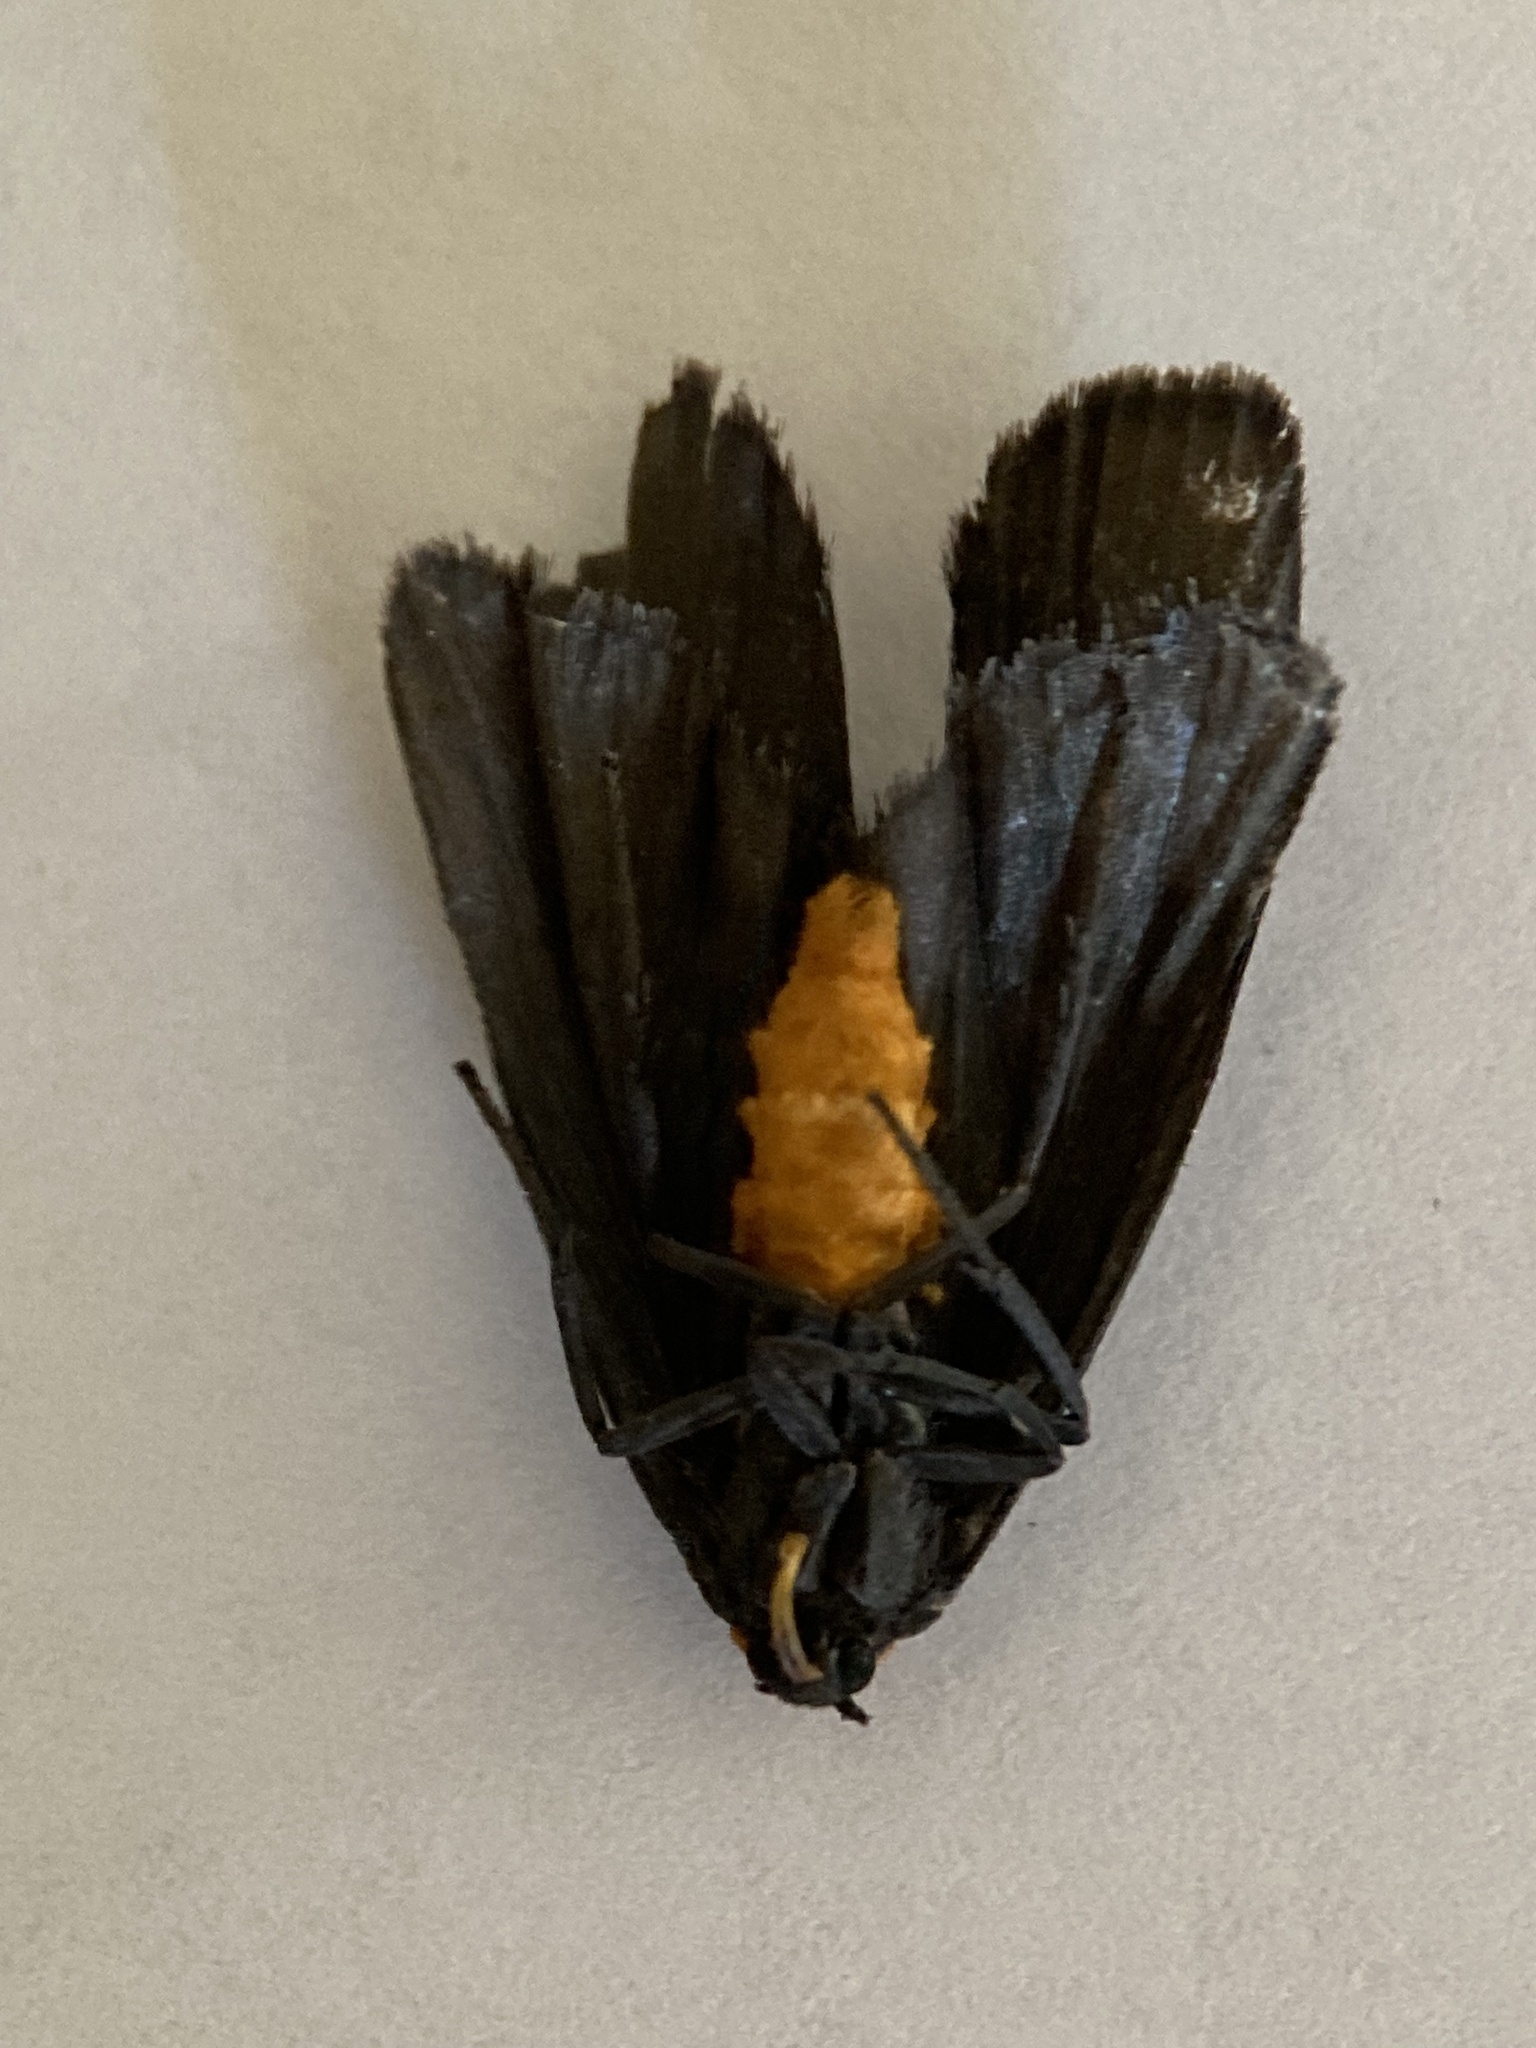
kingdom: Animalia
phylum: Arthropoda
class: Insecta
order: Lepidoptera
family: Erebidae
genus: Atolmis
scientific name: Atolmis rubricollis
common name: Red-necked footman
